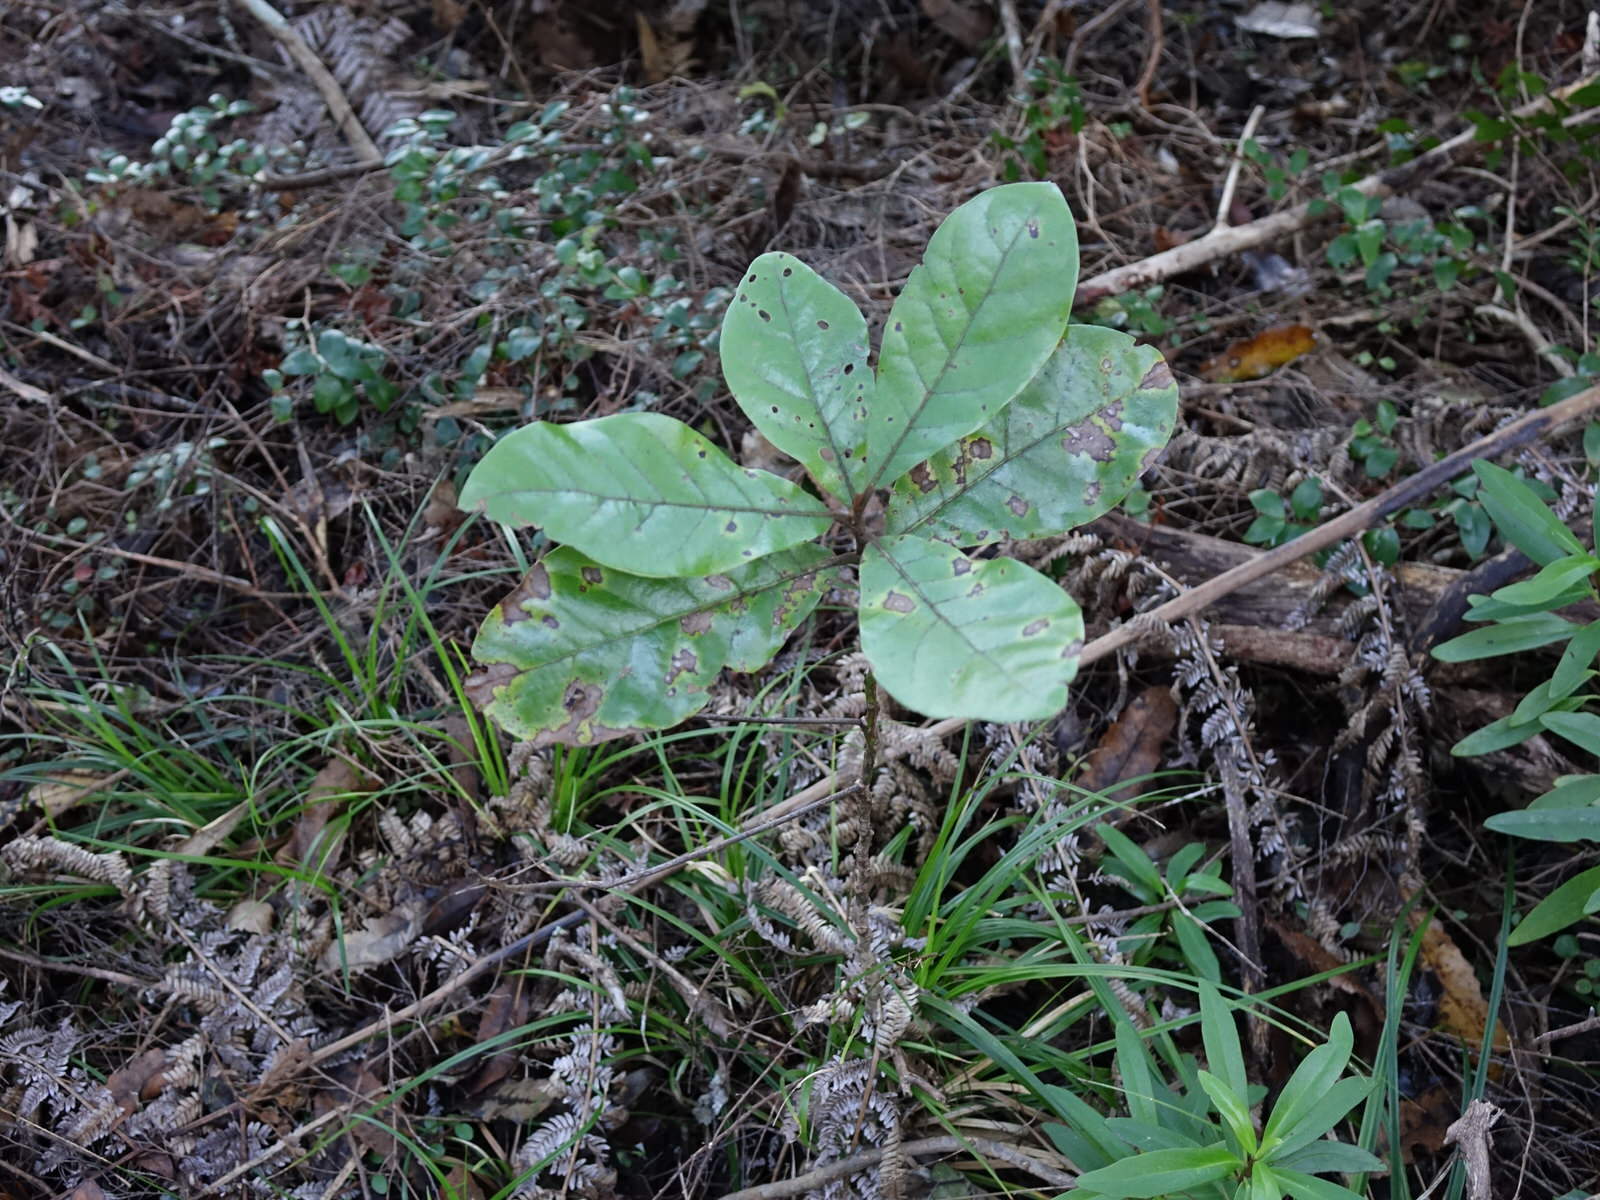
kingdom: Plantae
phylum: Tracheophyta
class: Magnoliopsida
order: Laurales
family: Lauraceae
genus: Beilschmiedia
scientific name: Beilschmiedia tarairi
